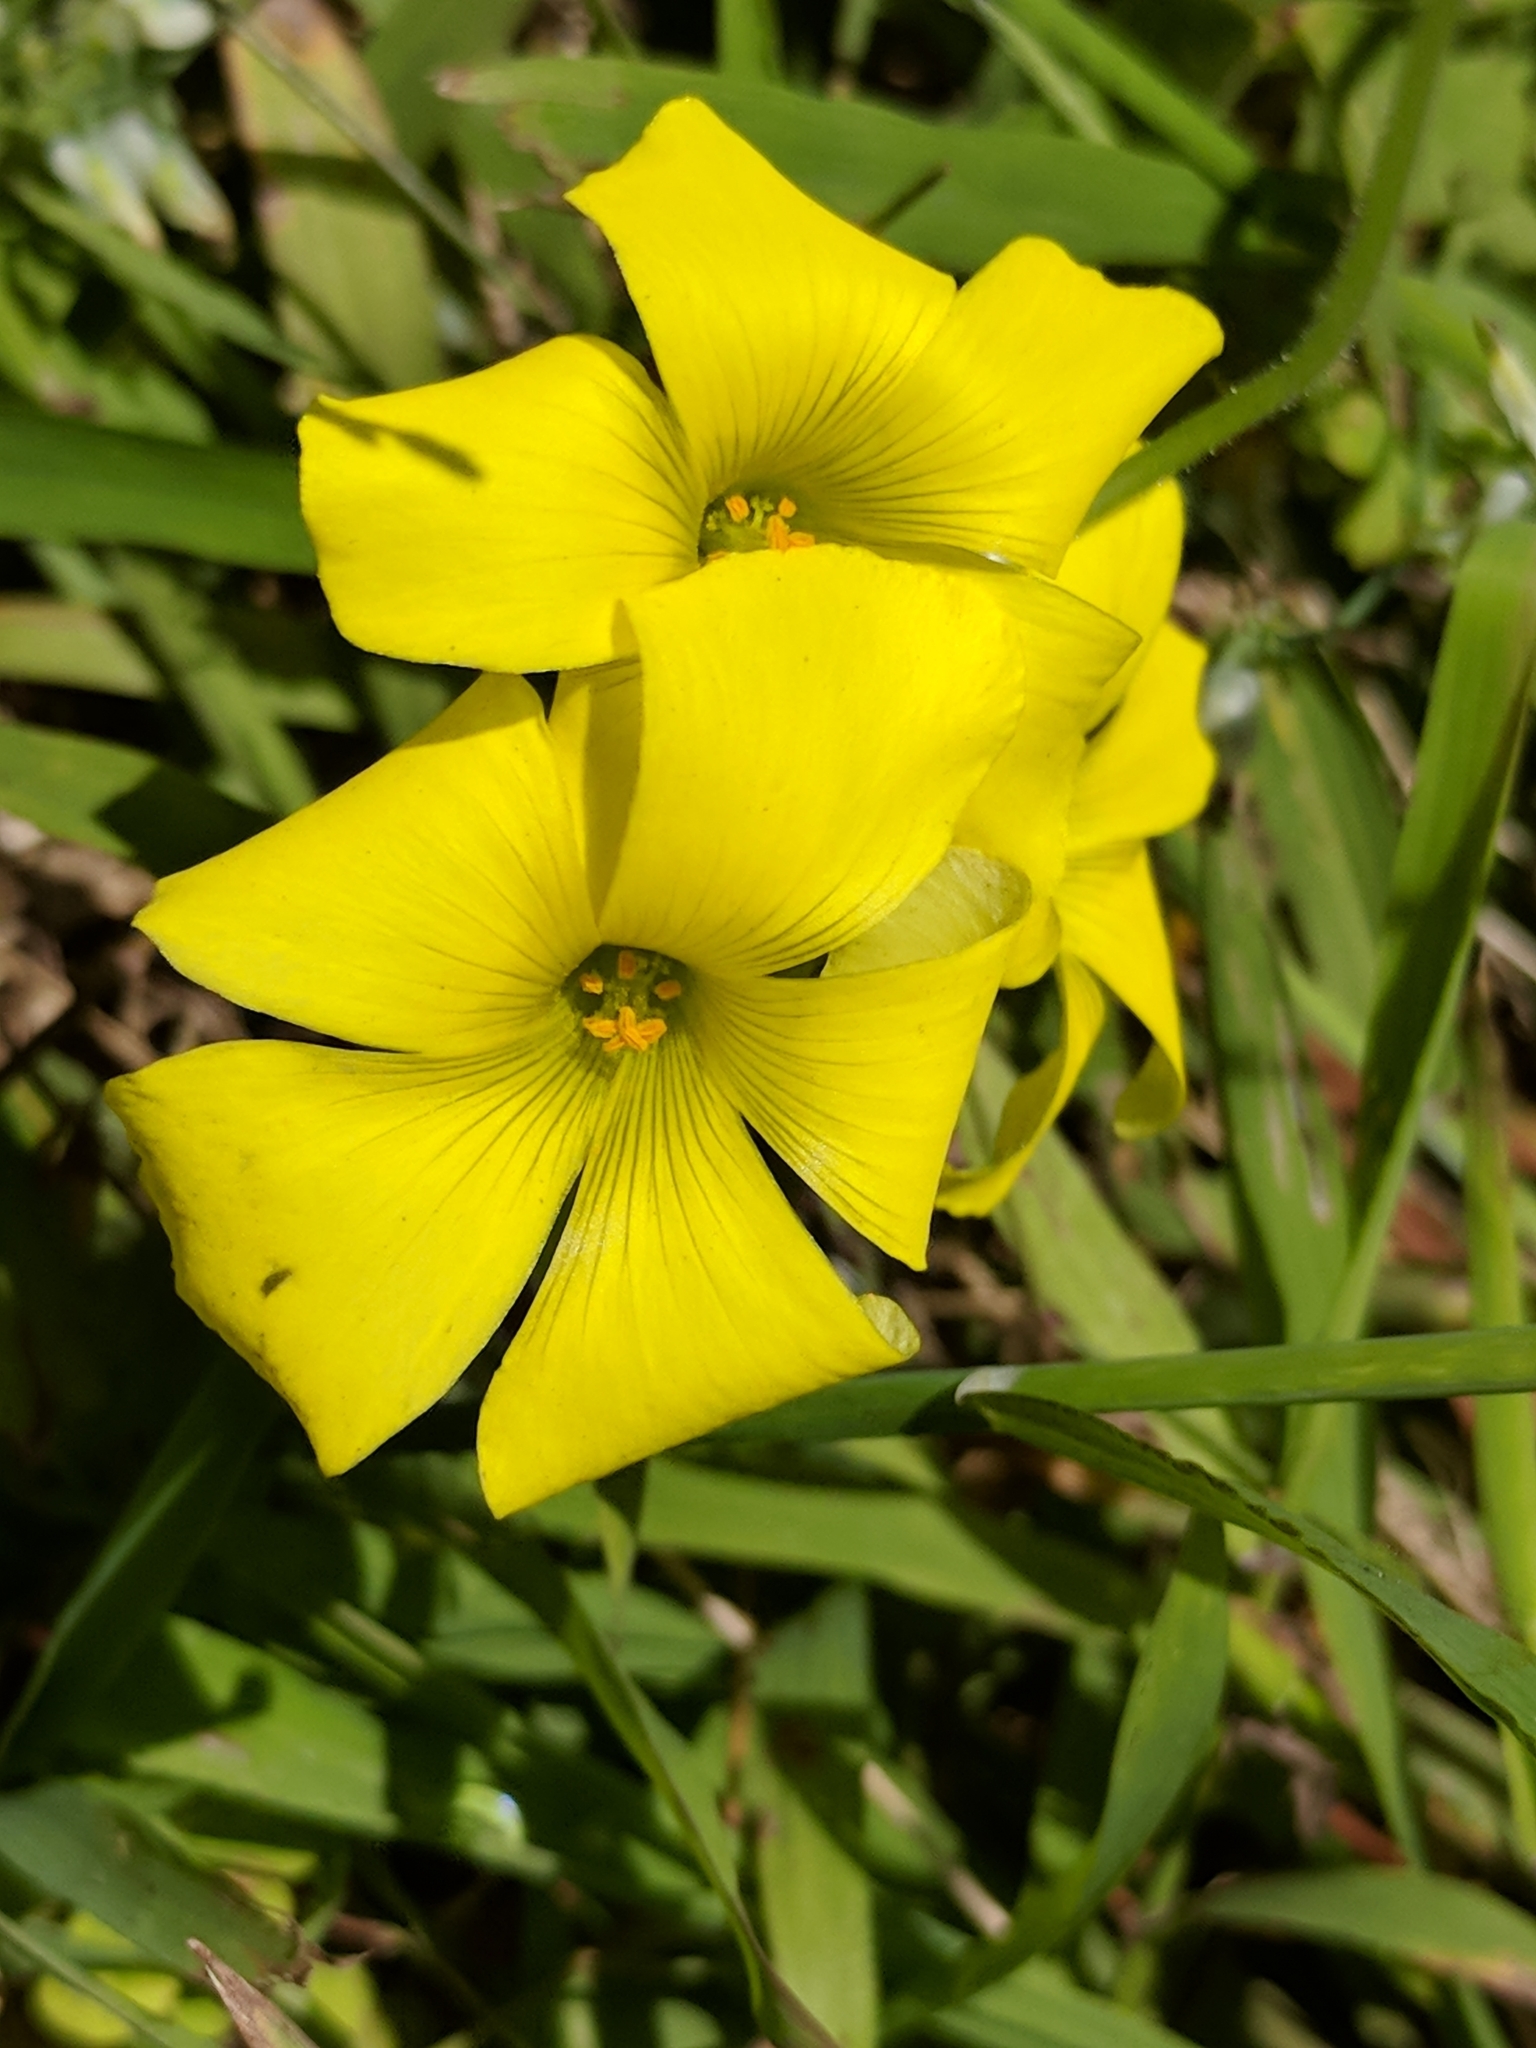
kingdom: Plantae
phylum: Tracheophyta
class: Magnoliopsida
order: Oxalidales
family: Oxalidaceae
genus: Oxalis
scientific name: Oxalis pes-caprae
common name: Bermuda-buttercup
